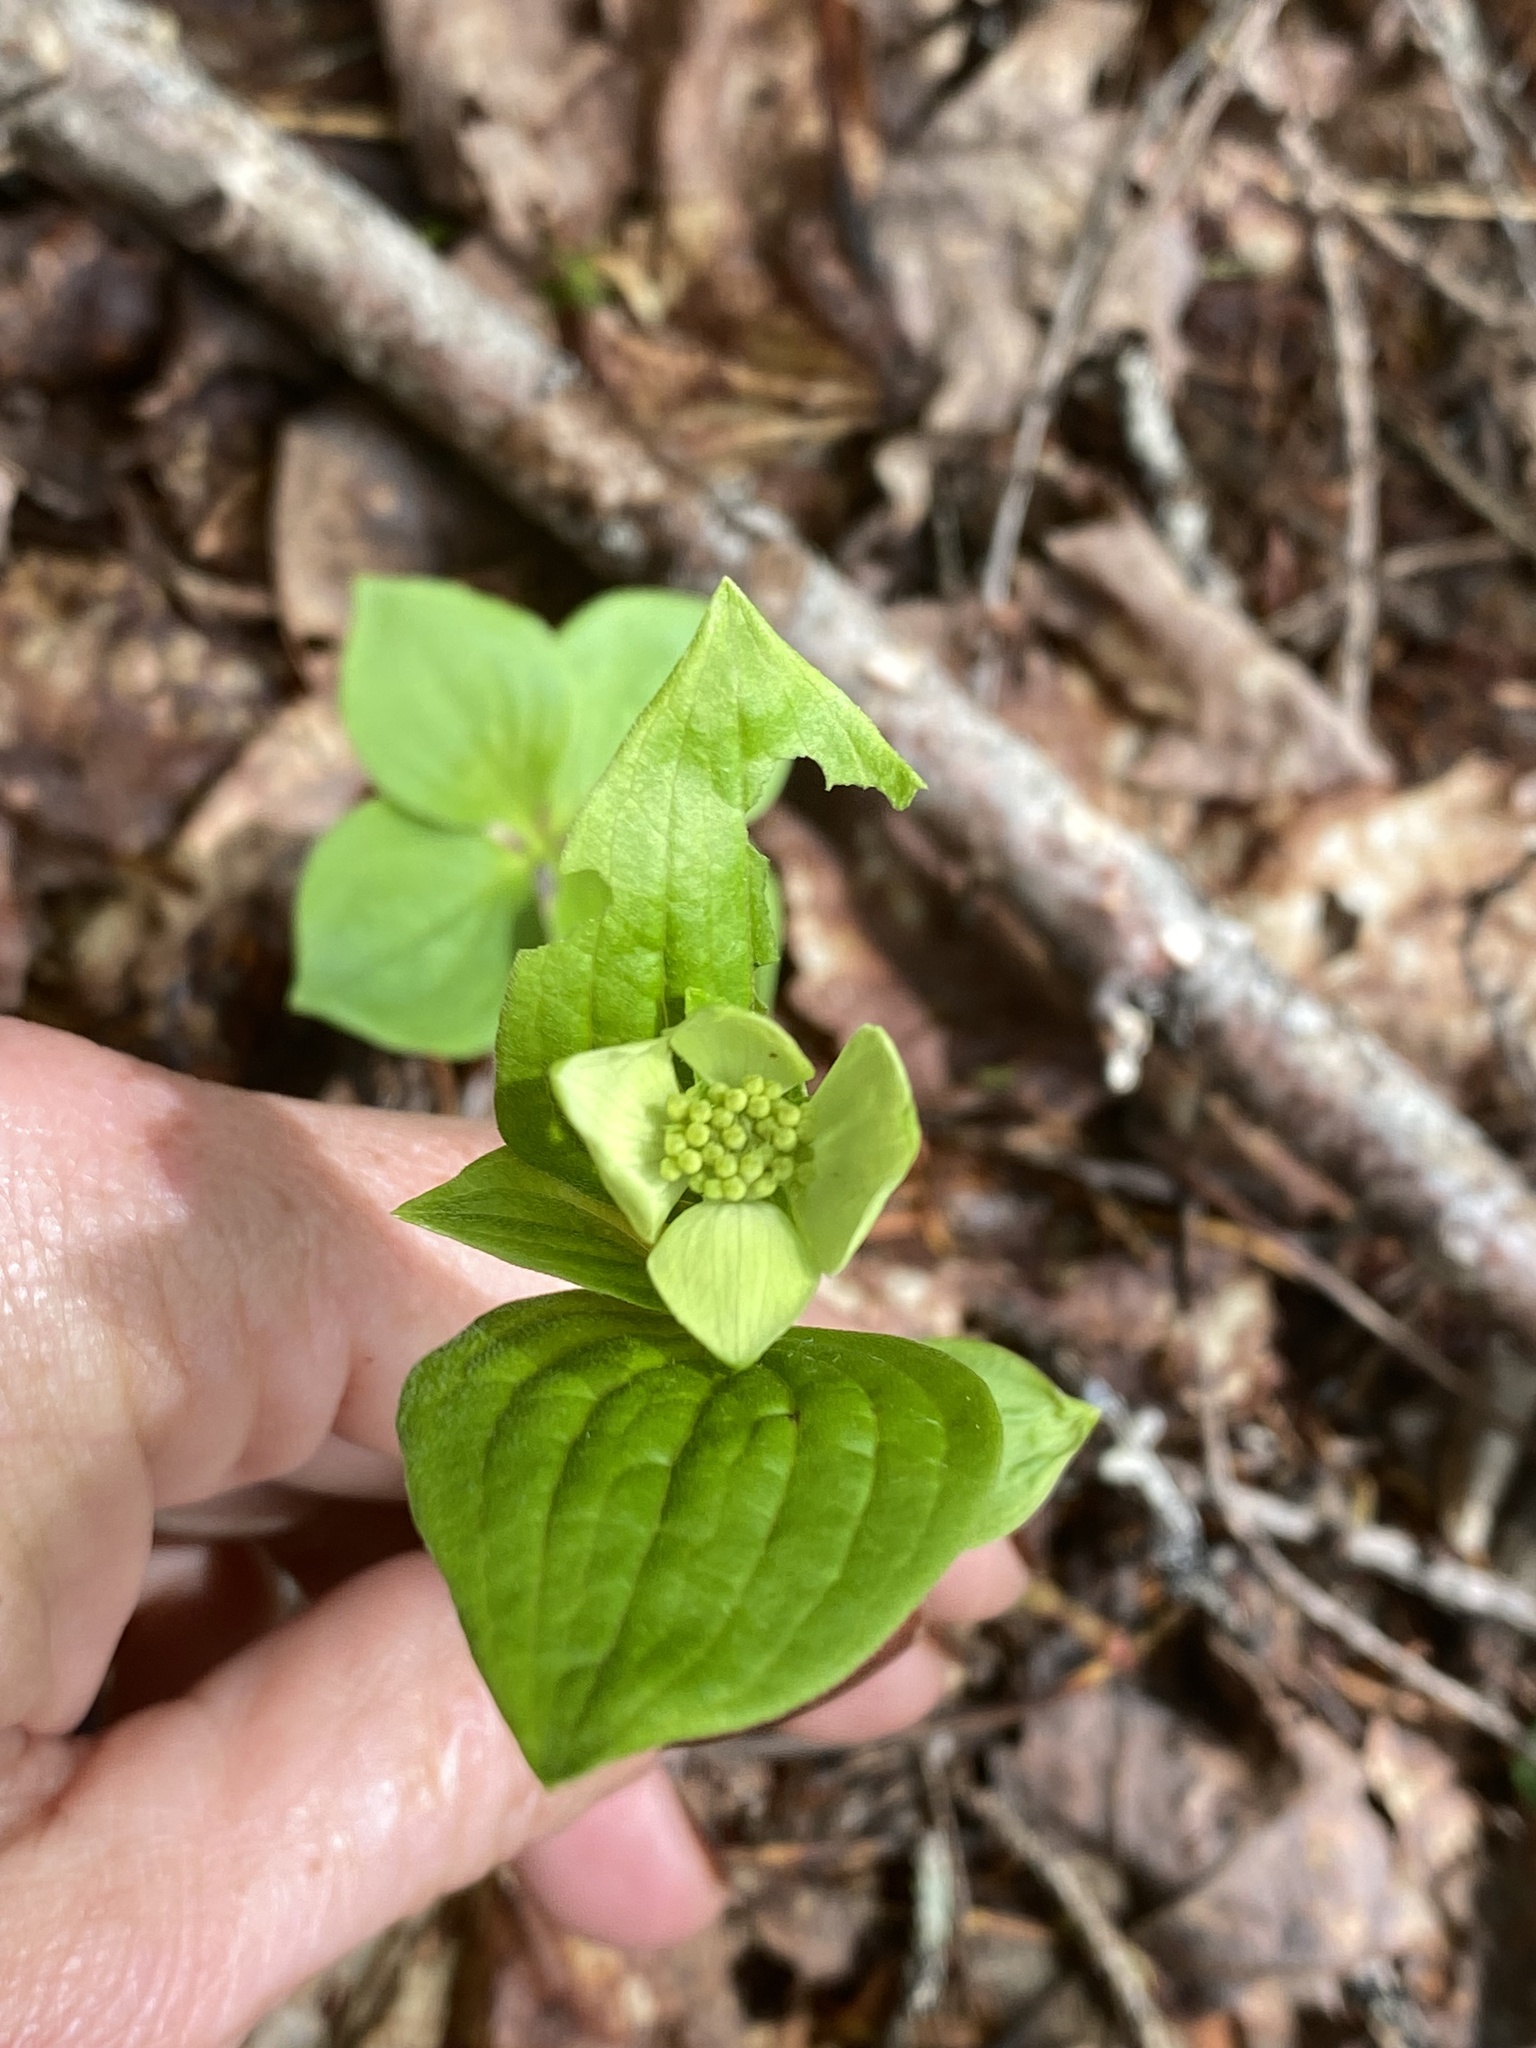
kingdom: Plantae
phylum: Tracheophyta
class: Magnoliopsida
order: Cornales
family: Cornaceae
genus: Cornus
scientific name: Cornus canadensis
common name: Creeping dogwood
